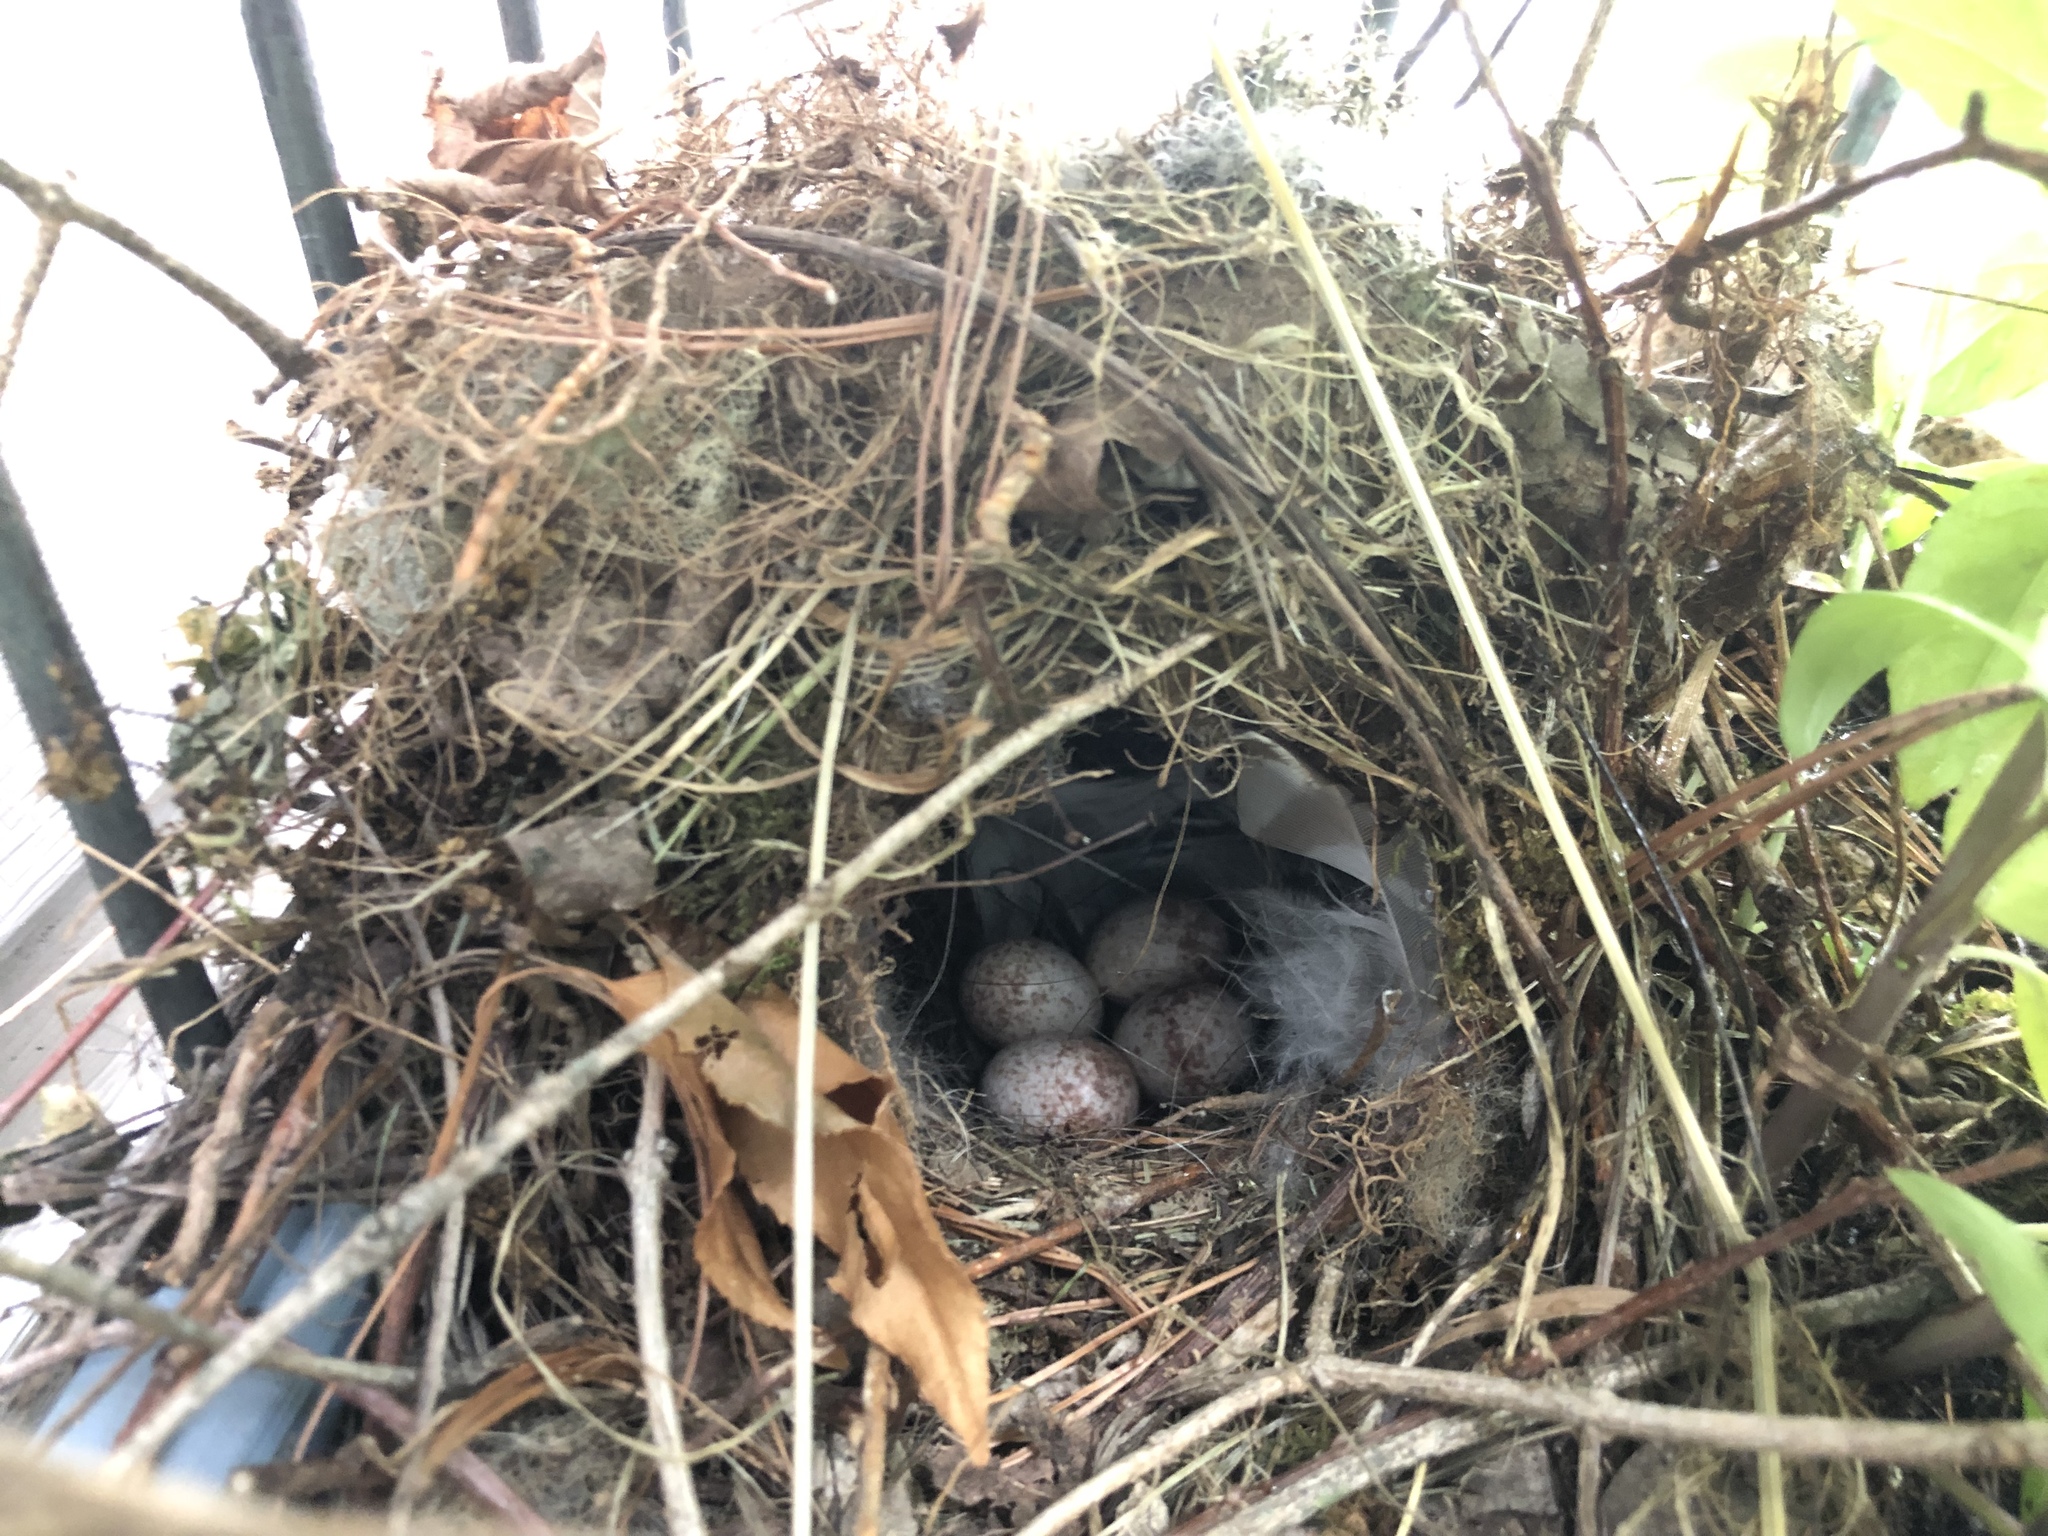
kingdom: Animalia
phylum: Chordata
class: Aves
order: Passeriformes
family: Troglodytidae
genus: Thryothorus
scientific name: Thryothorus ludovicianus
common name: Carolina wren
